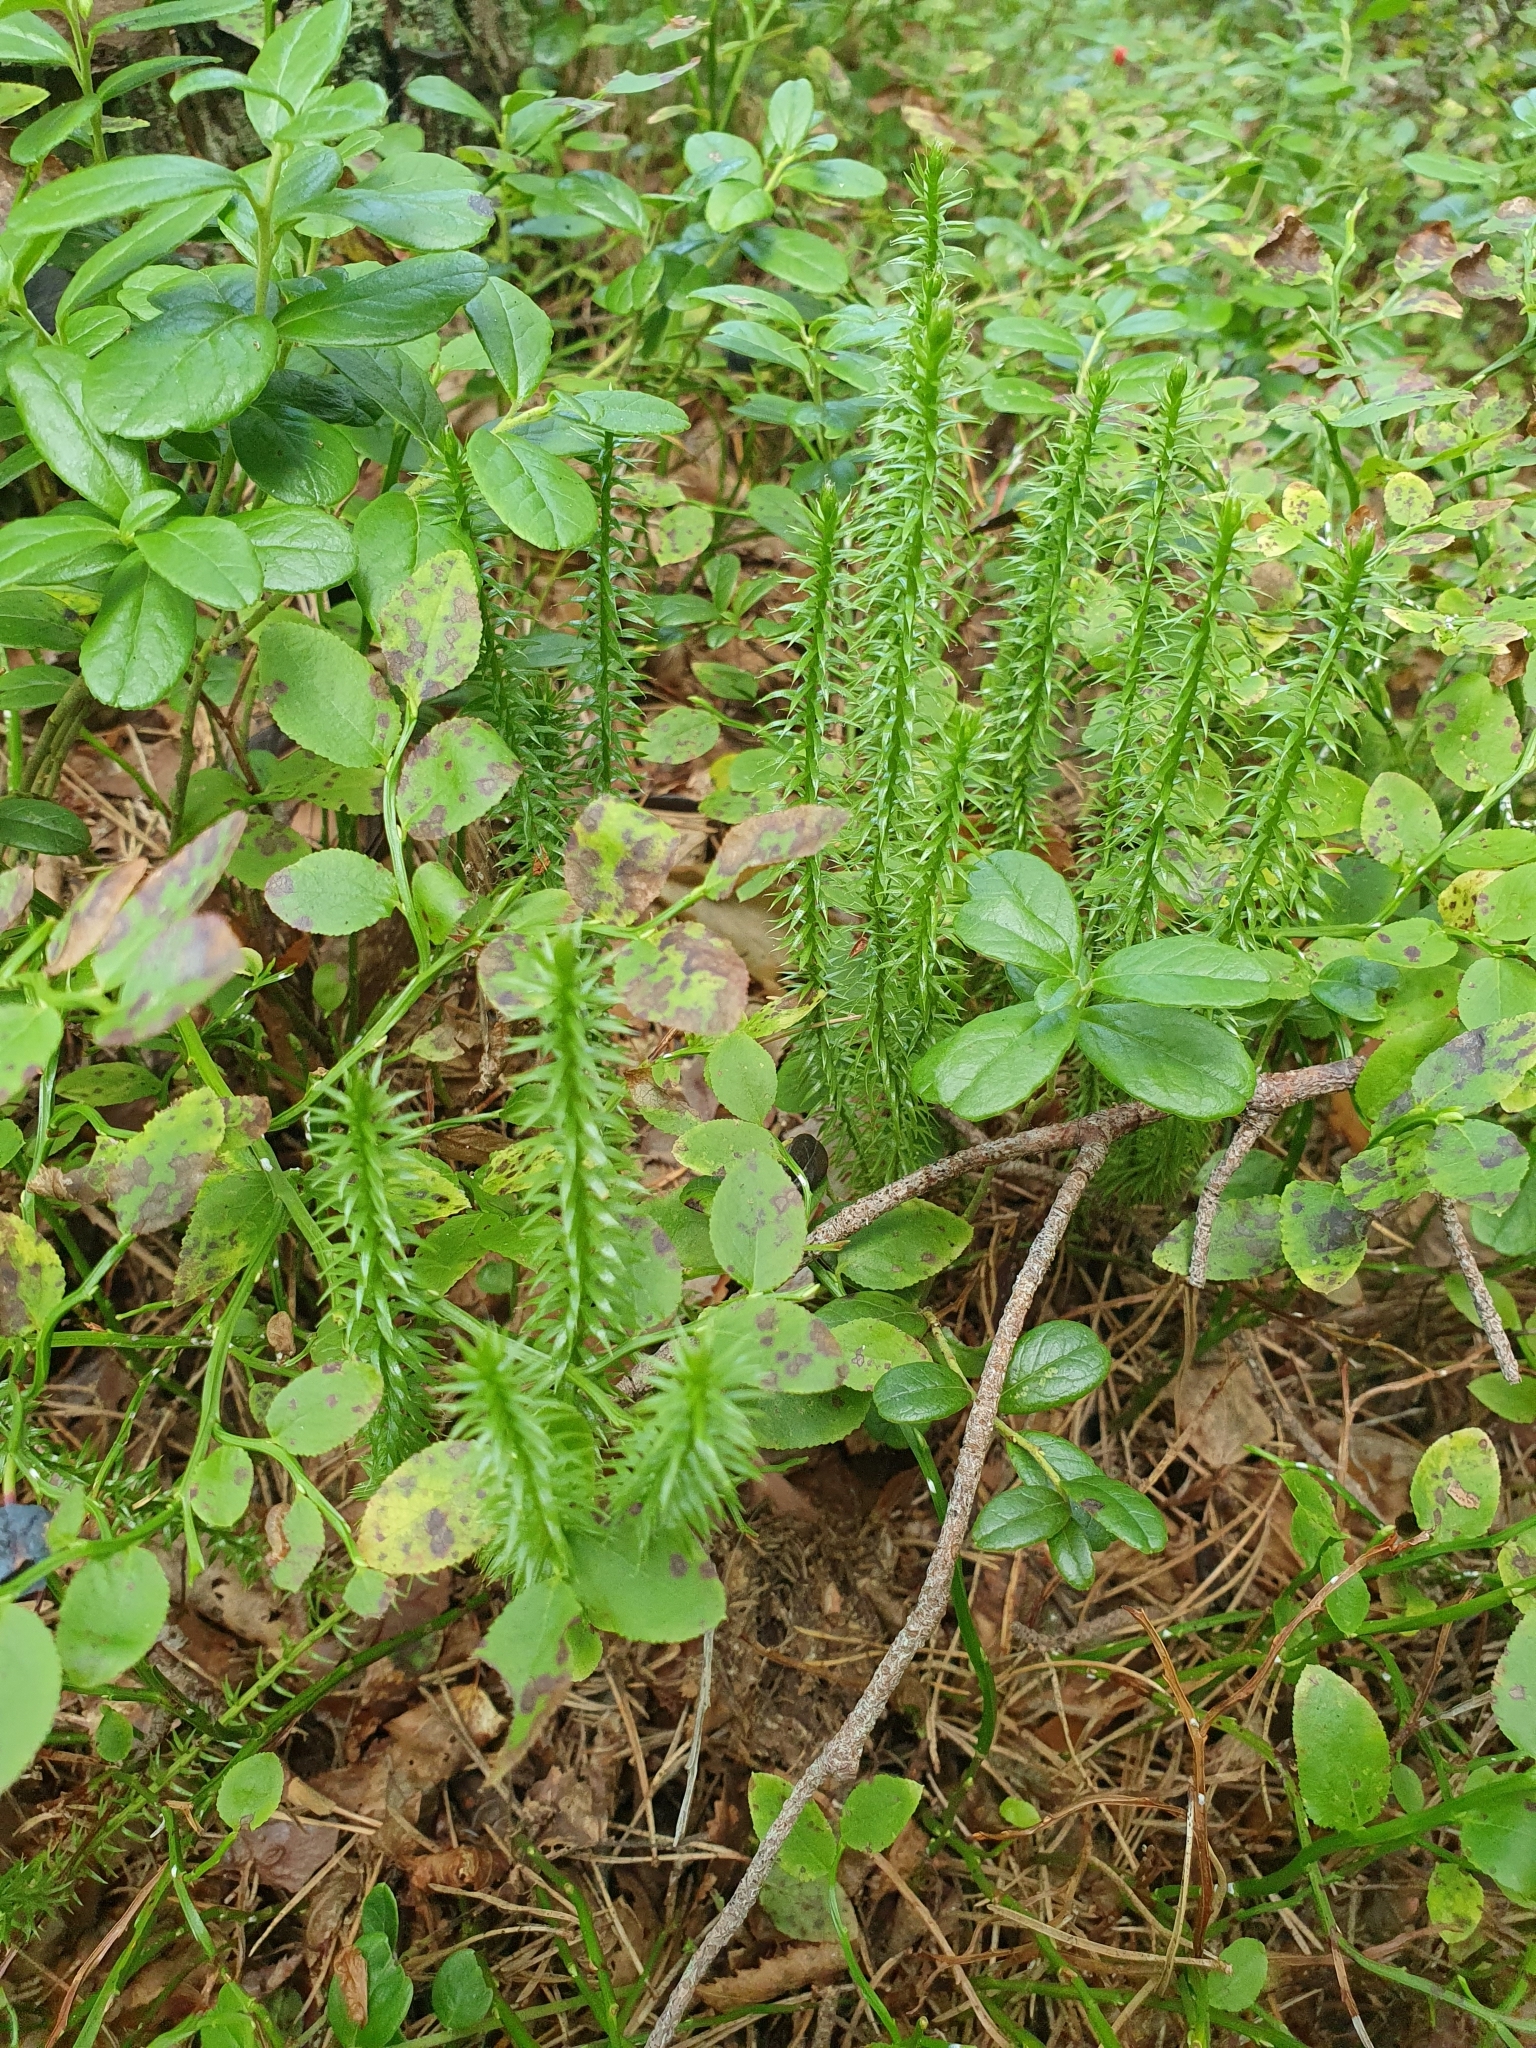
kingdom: Plantae
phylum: Tracheophyta
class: Lycopodiopsida
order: Lycopodiales
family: Lycopodiaceae
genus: Spinulum
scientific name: Spinulum annotinum
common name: Interrupted club-moss
